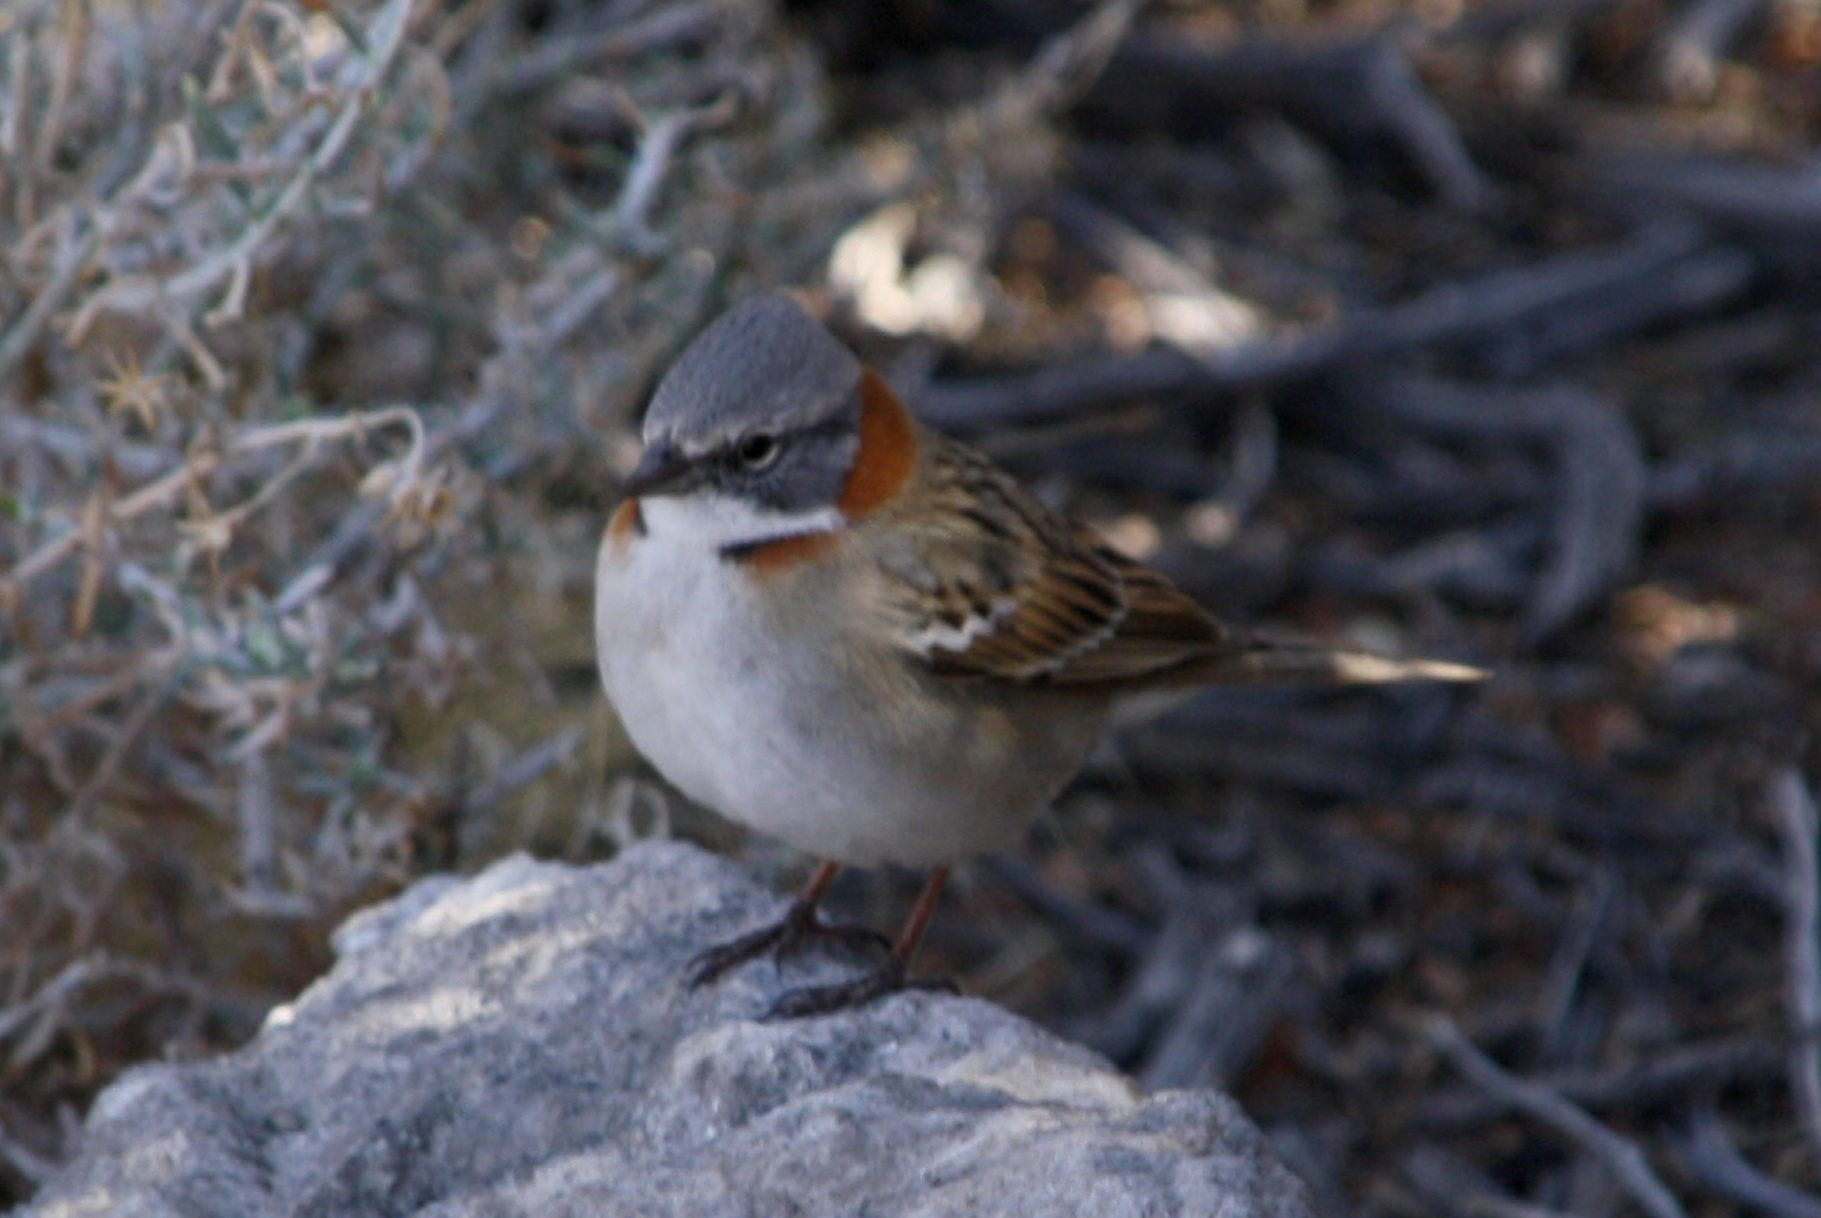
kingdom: Animalia
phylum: Chordata
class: Aves
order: Passeriformes
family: Passerellidae
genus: Zonotrichia
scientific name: Zonotrichia capensis
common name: Rufous-collared sparrow
